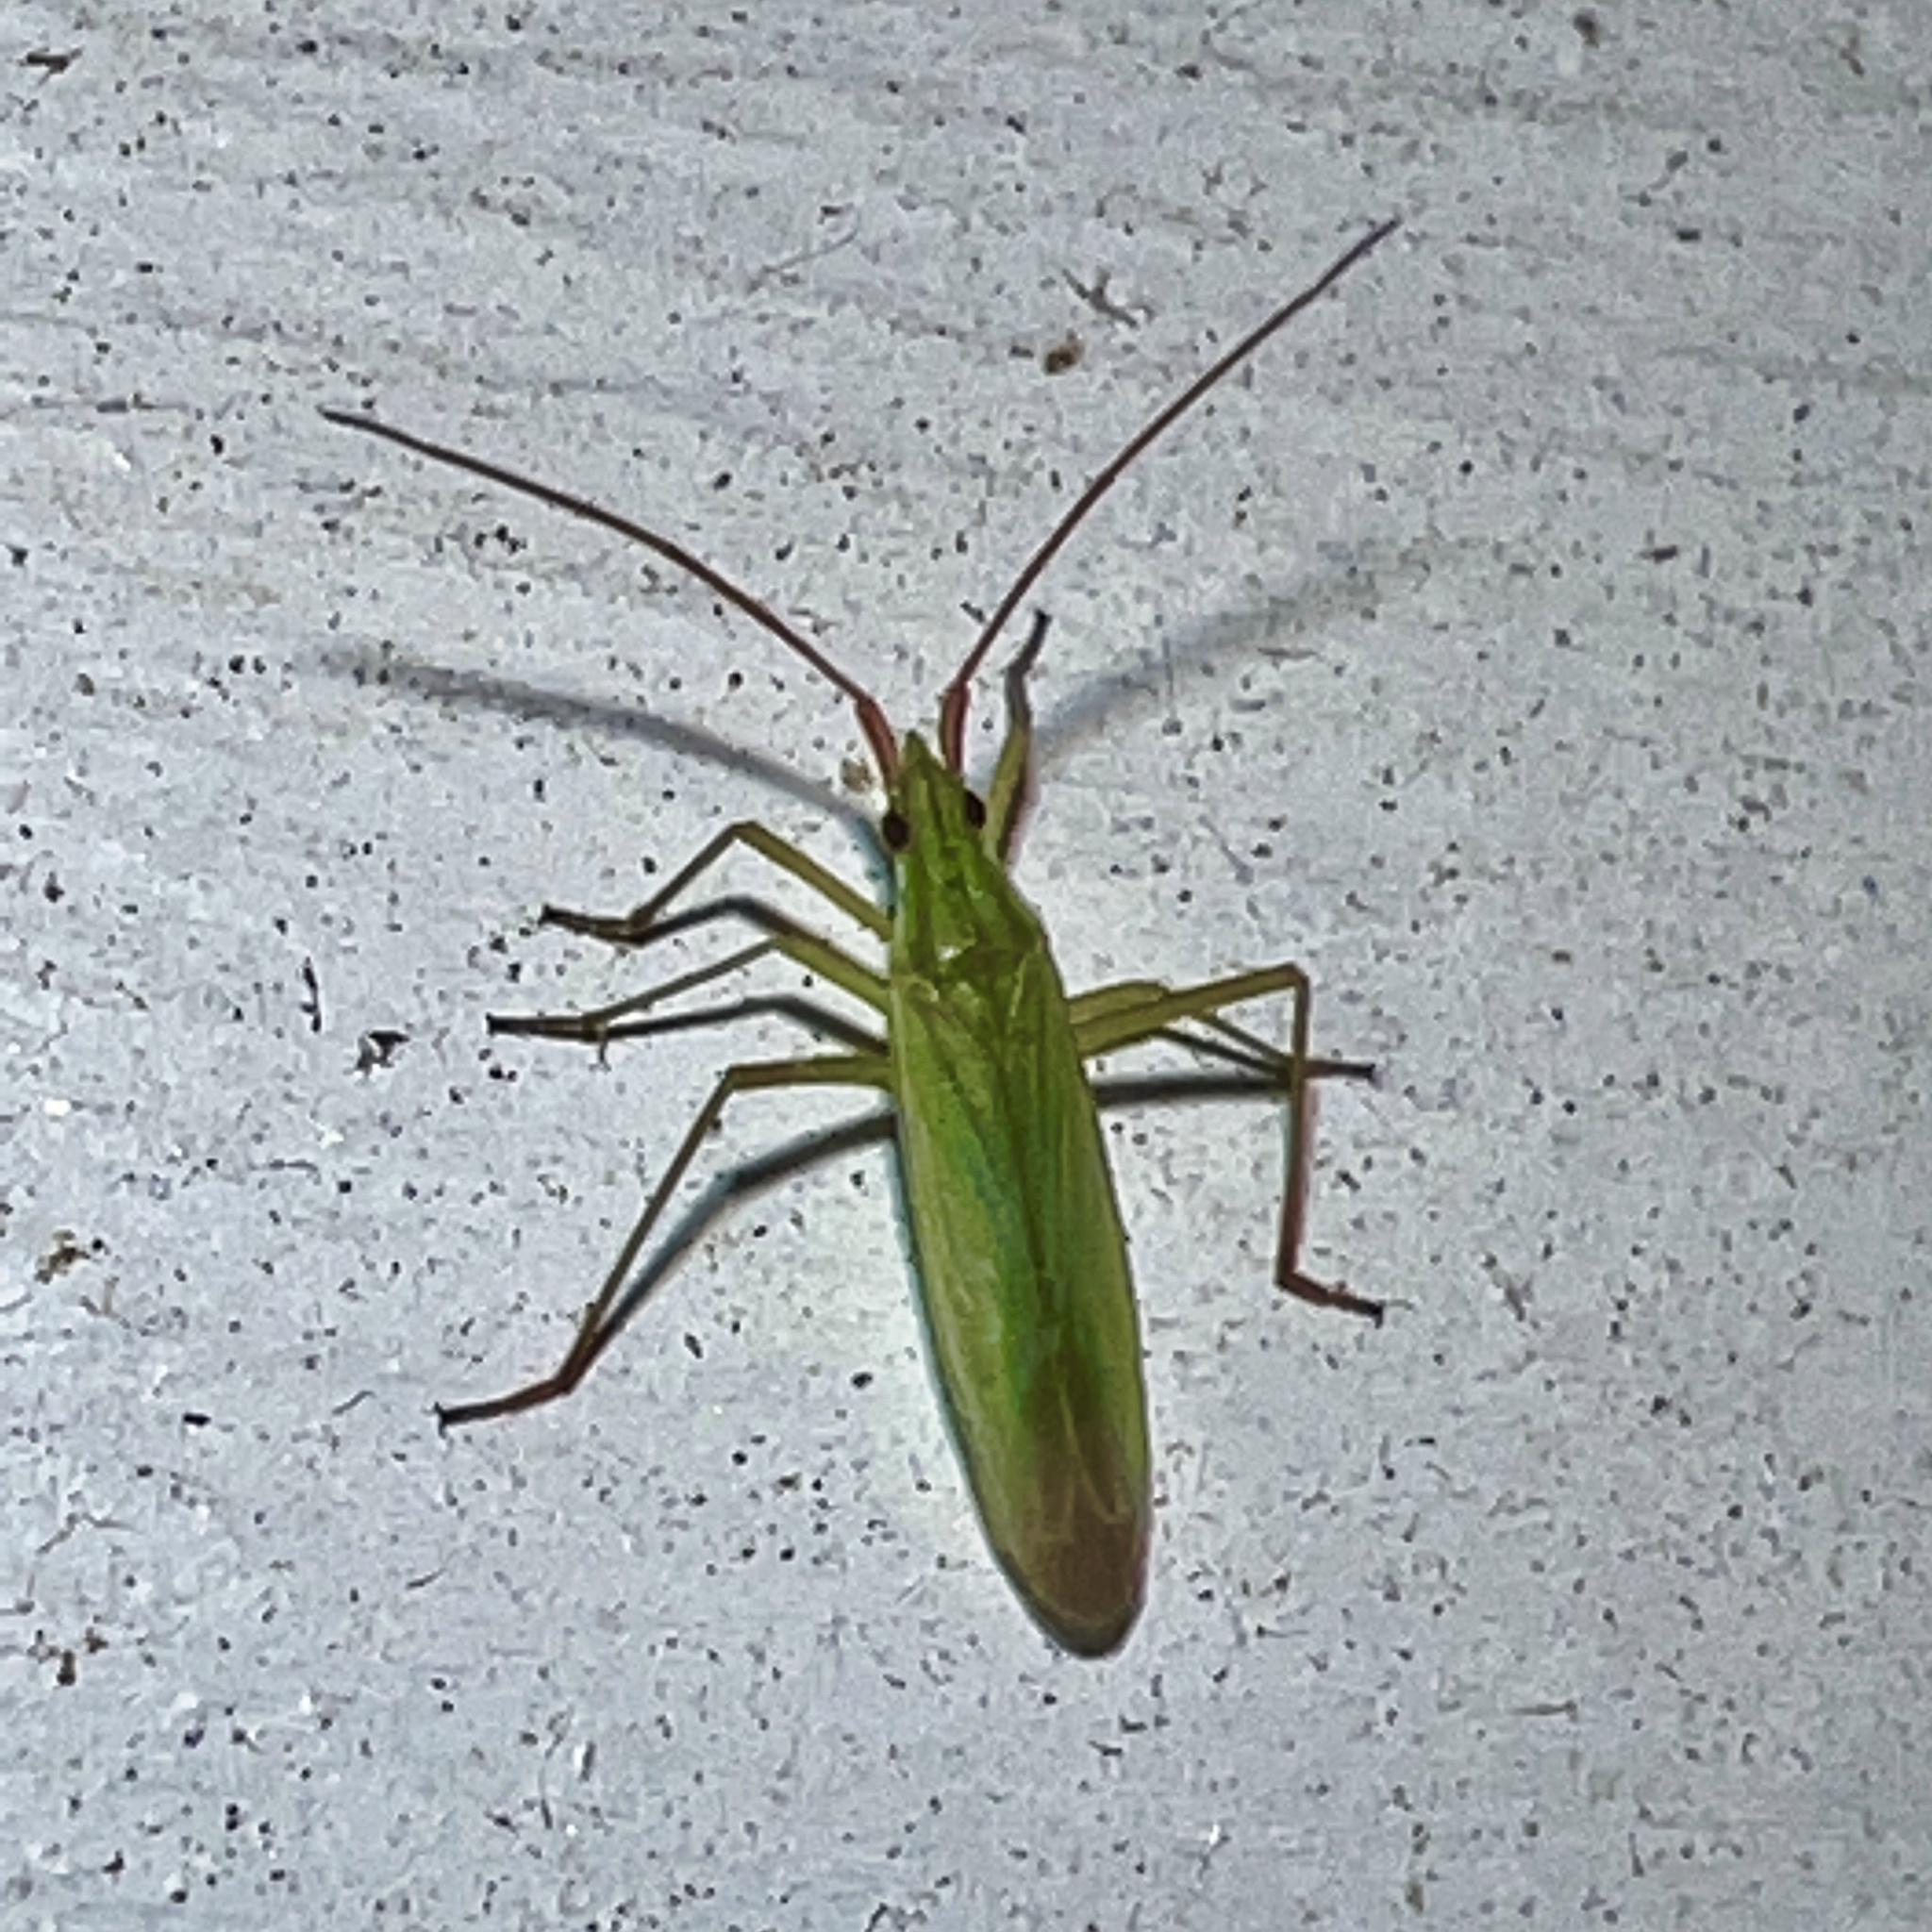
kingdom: Animalia
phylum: Arthropoda
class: Insecta
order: Hemiptera
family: Miridae
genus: Trigonotylus
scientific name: Trigonotylus caelestialium
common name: Rice leaf bug
